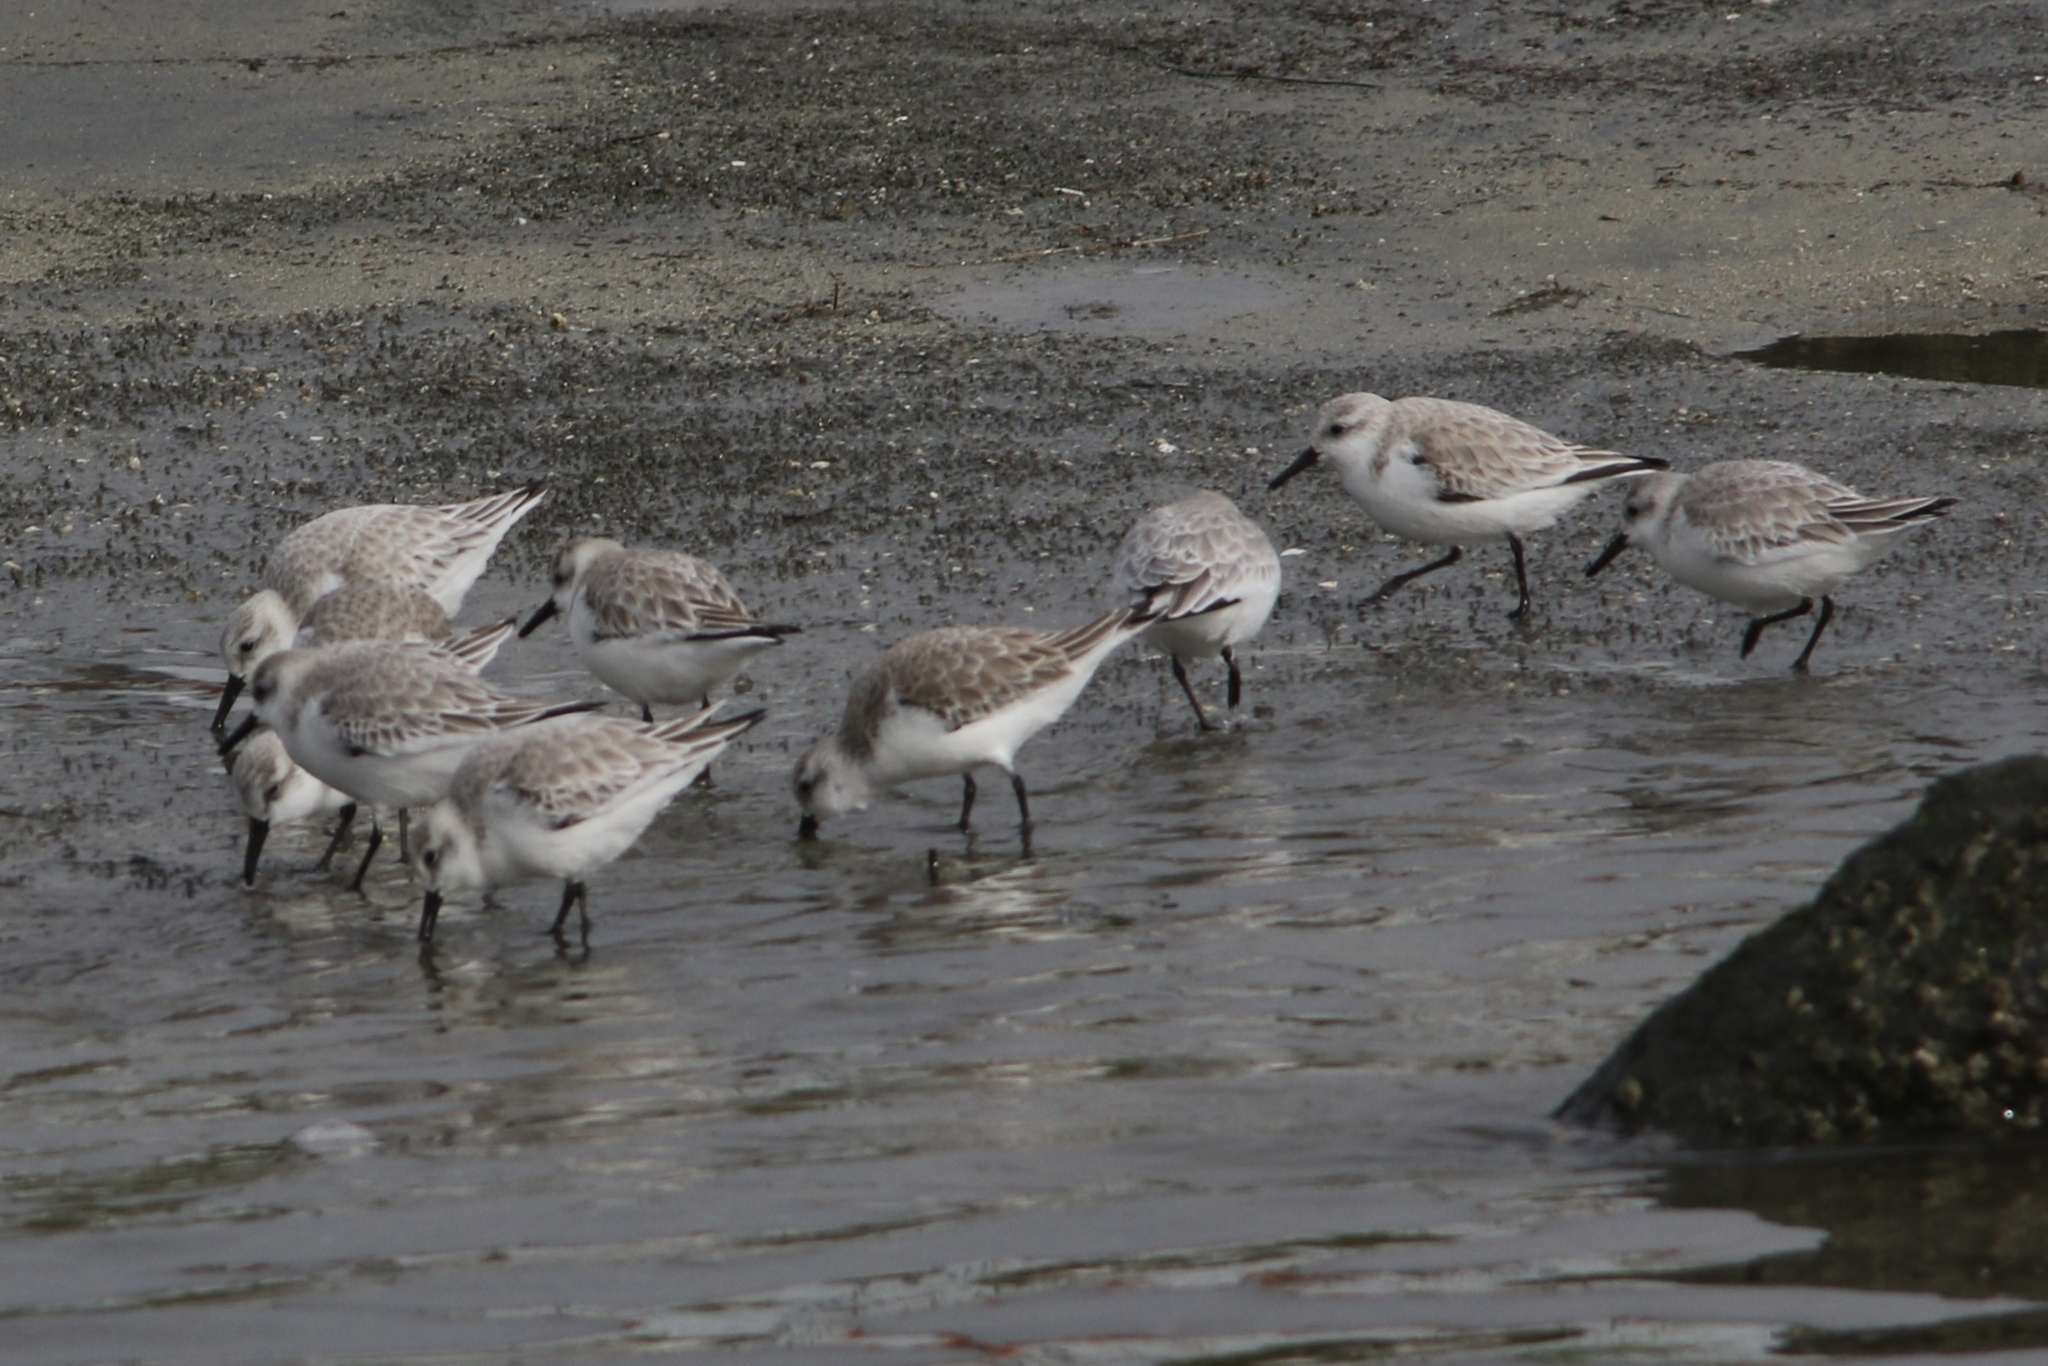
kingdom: Animalia
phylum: Chordata
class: Aves
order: Charadriiformes
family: Scolopacidae
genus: Calidris
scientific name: Calidris alba
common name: Sanderling
